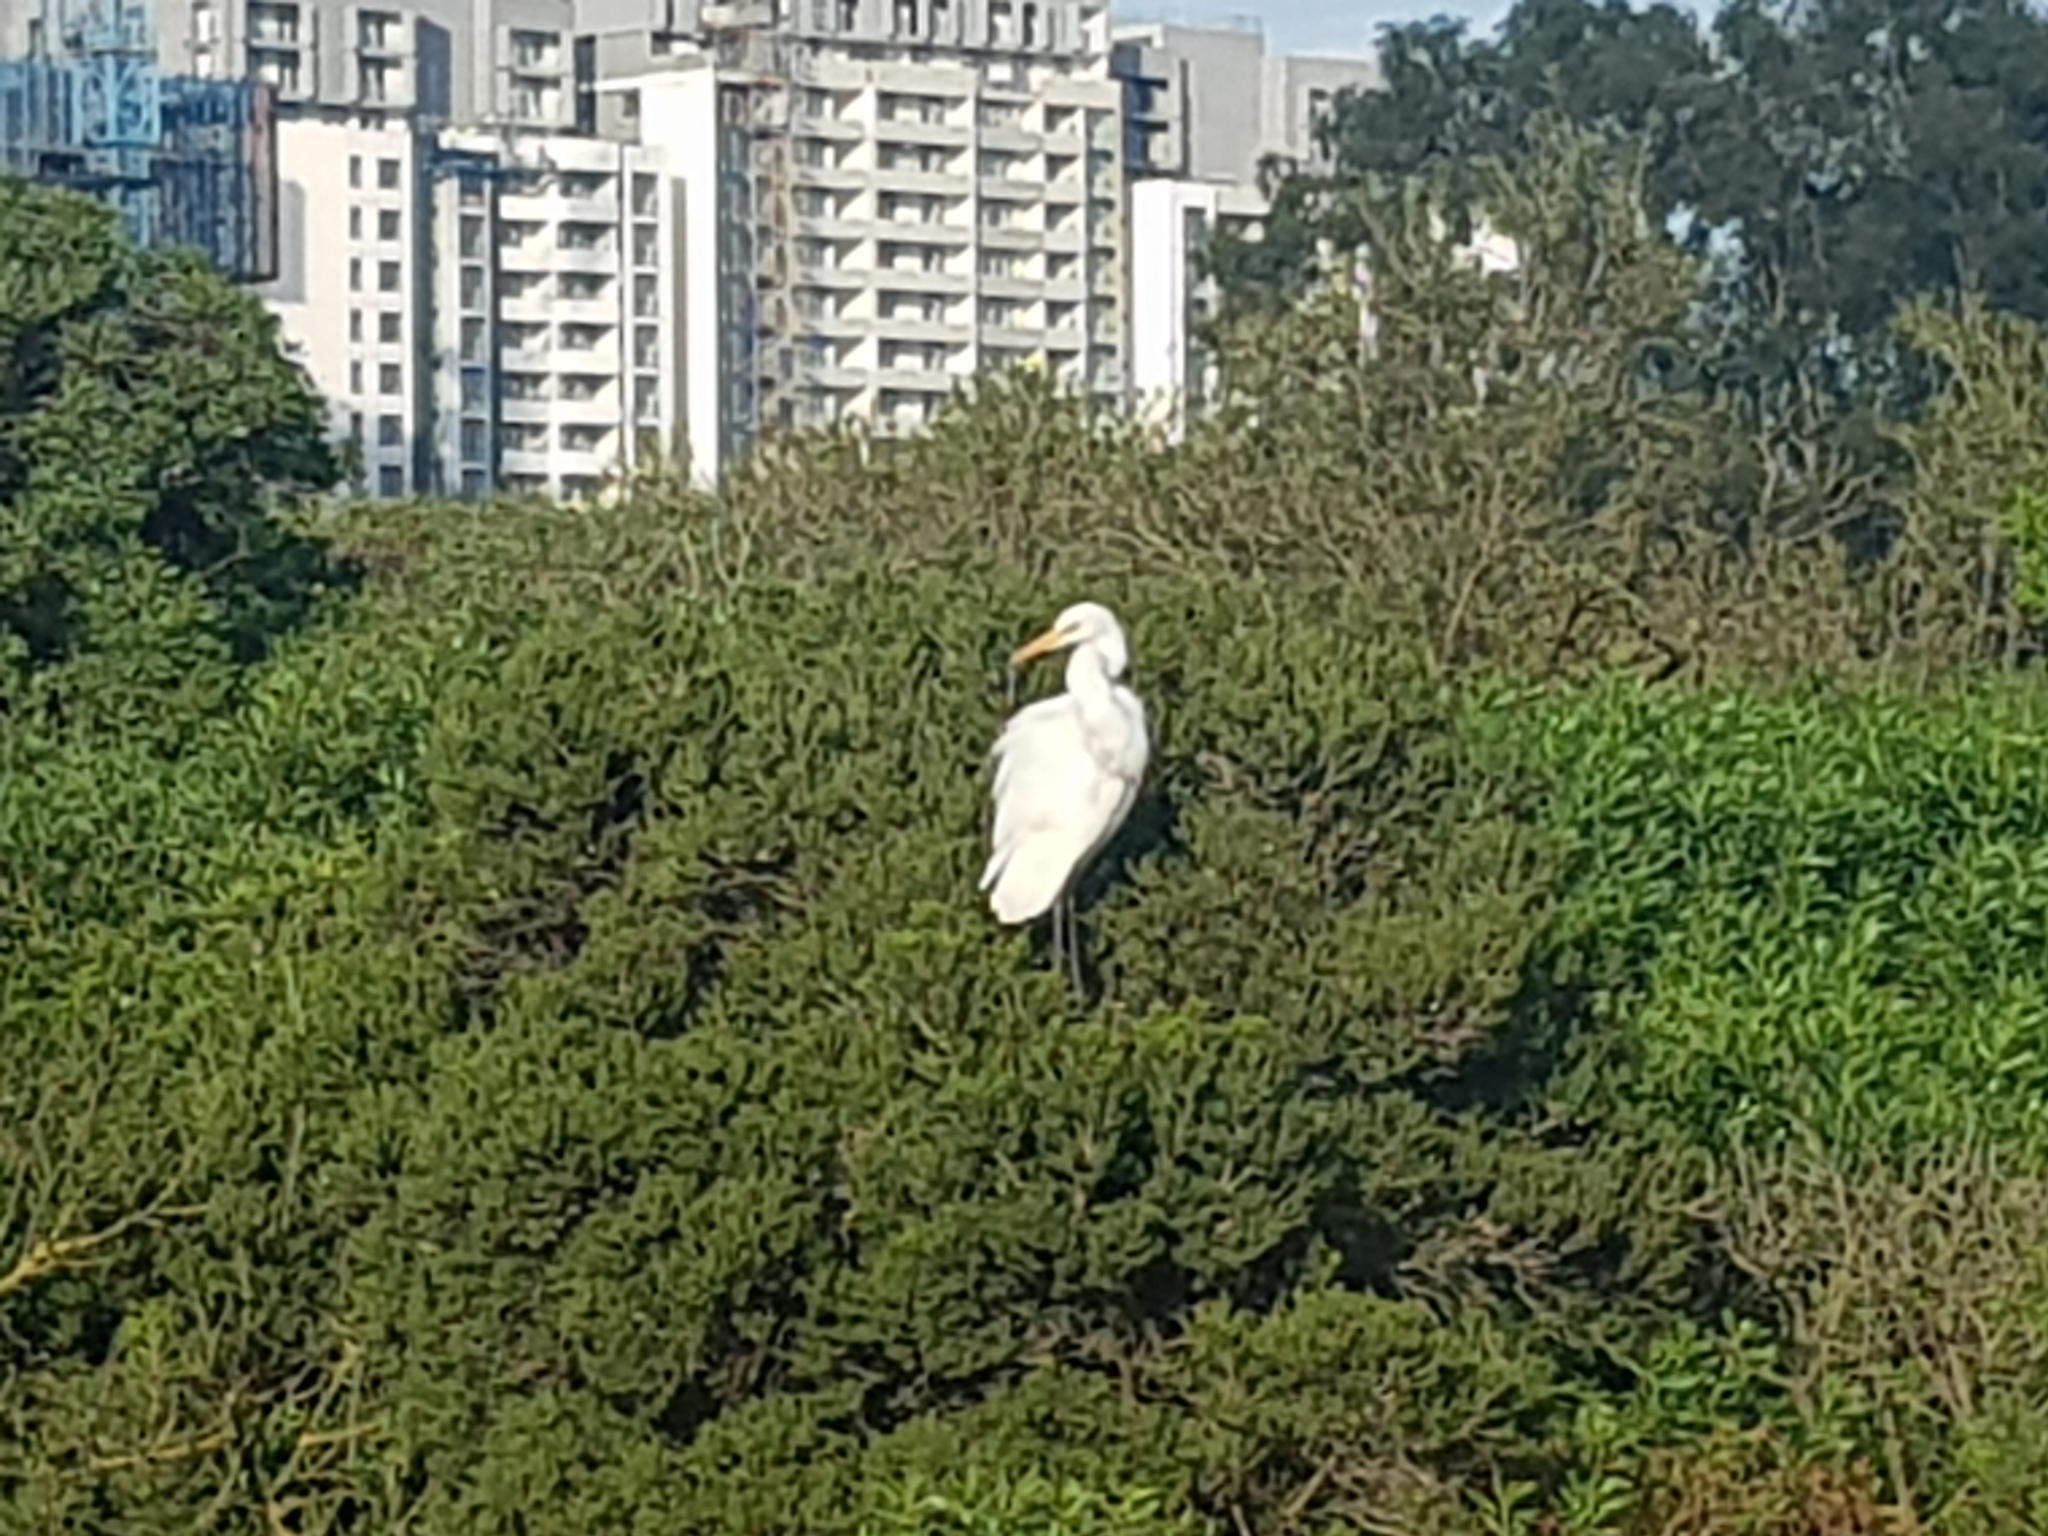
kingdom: Animalia
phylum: Chordata
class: Aves
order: Pelecaniformes
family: Ardeidae
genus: Ardea
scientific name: Ardea alba
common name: Great egret
